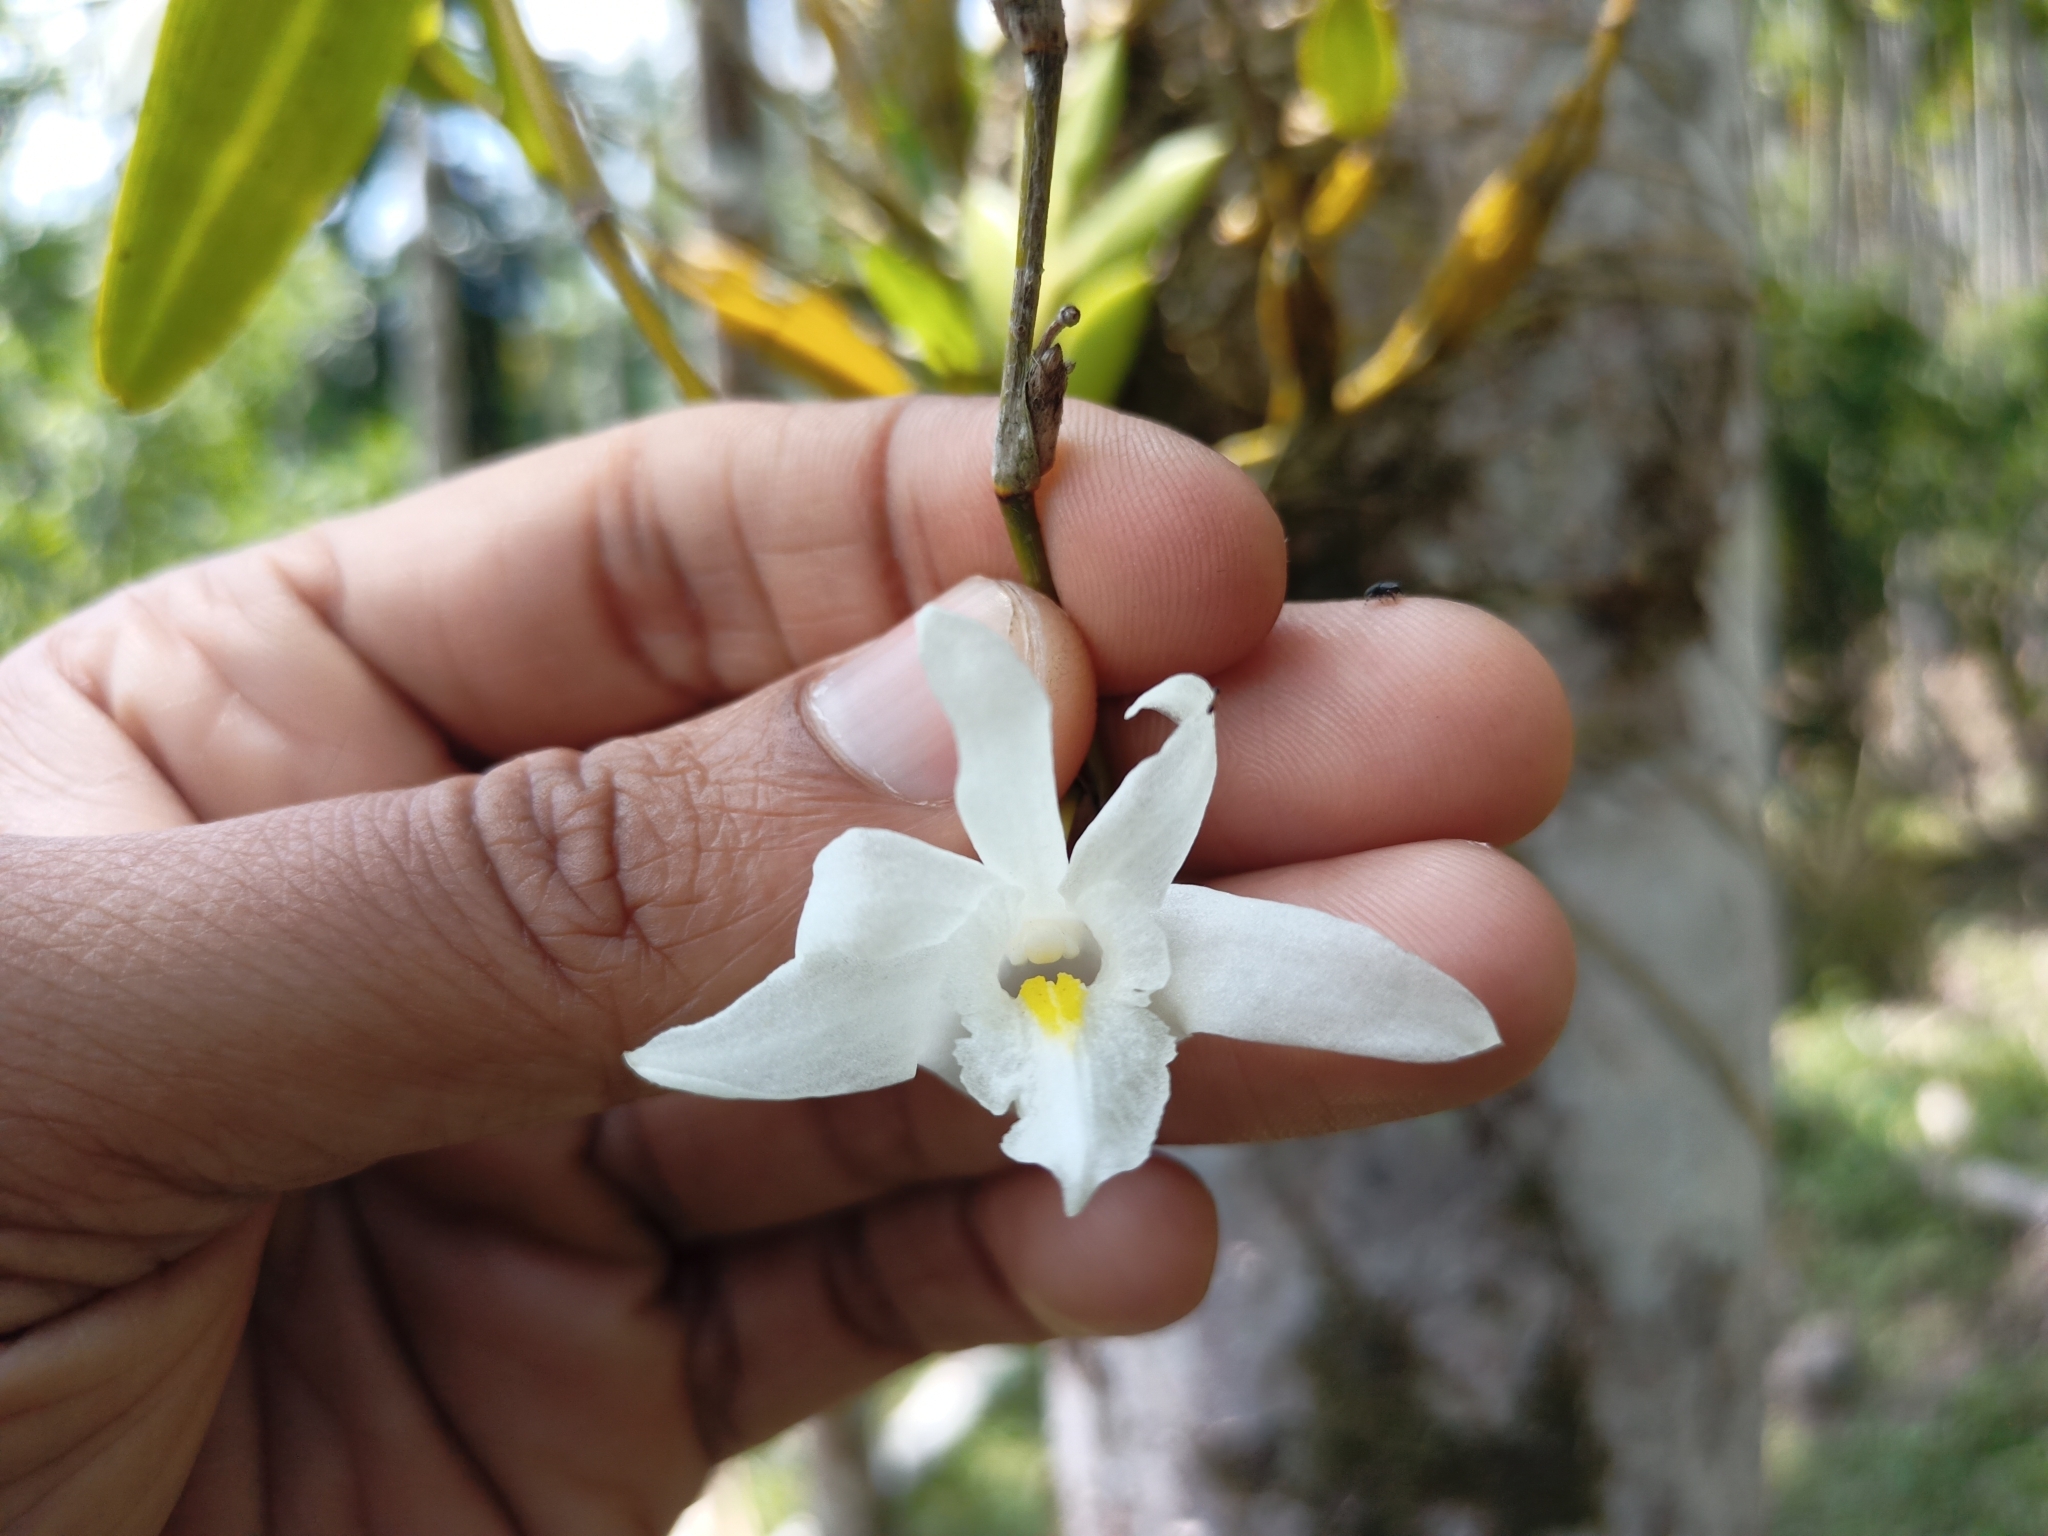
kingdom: Plantae
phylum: Tracheophyta
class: Liliopsida
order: Asparagales
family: Orchidaceae
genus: Dendrobium
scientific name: Dendrobium crumenatum
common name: Orchid
